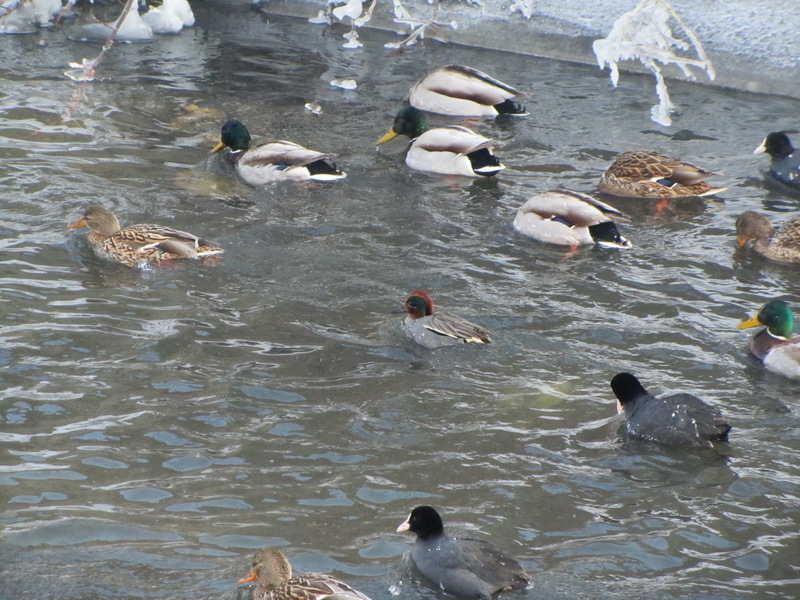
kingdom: Animalia
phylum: Chordata
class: Aves
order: Anseriformes
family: Anatidae
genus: Anas
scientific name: Anas crecca
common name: Eurasian teal
